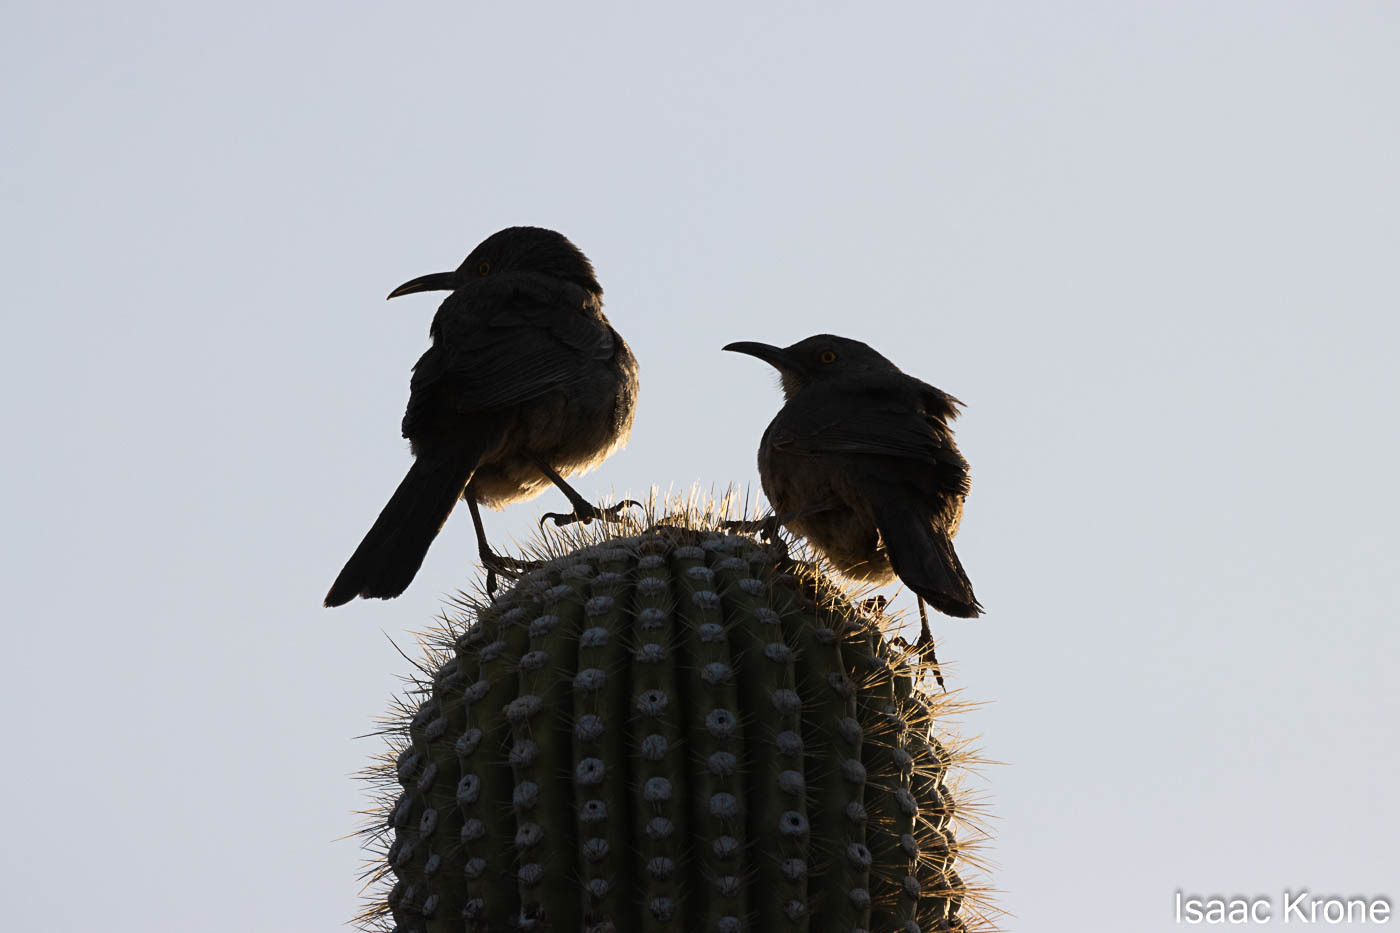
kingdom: Animalia
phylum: Chordata
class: Aves
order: Passeriformes
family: Mimidae
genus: Toxostoma
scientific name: Toxostoma curvirostre
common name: Curve-billed thrasher
